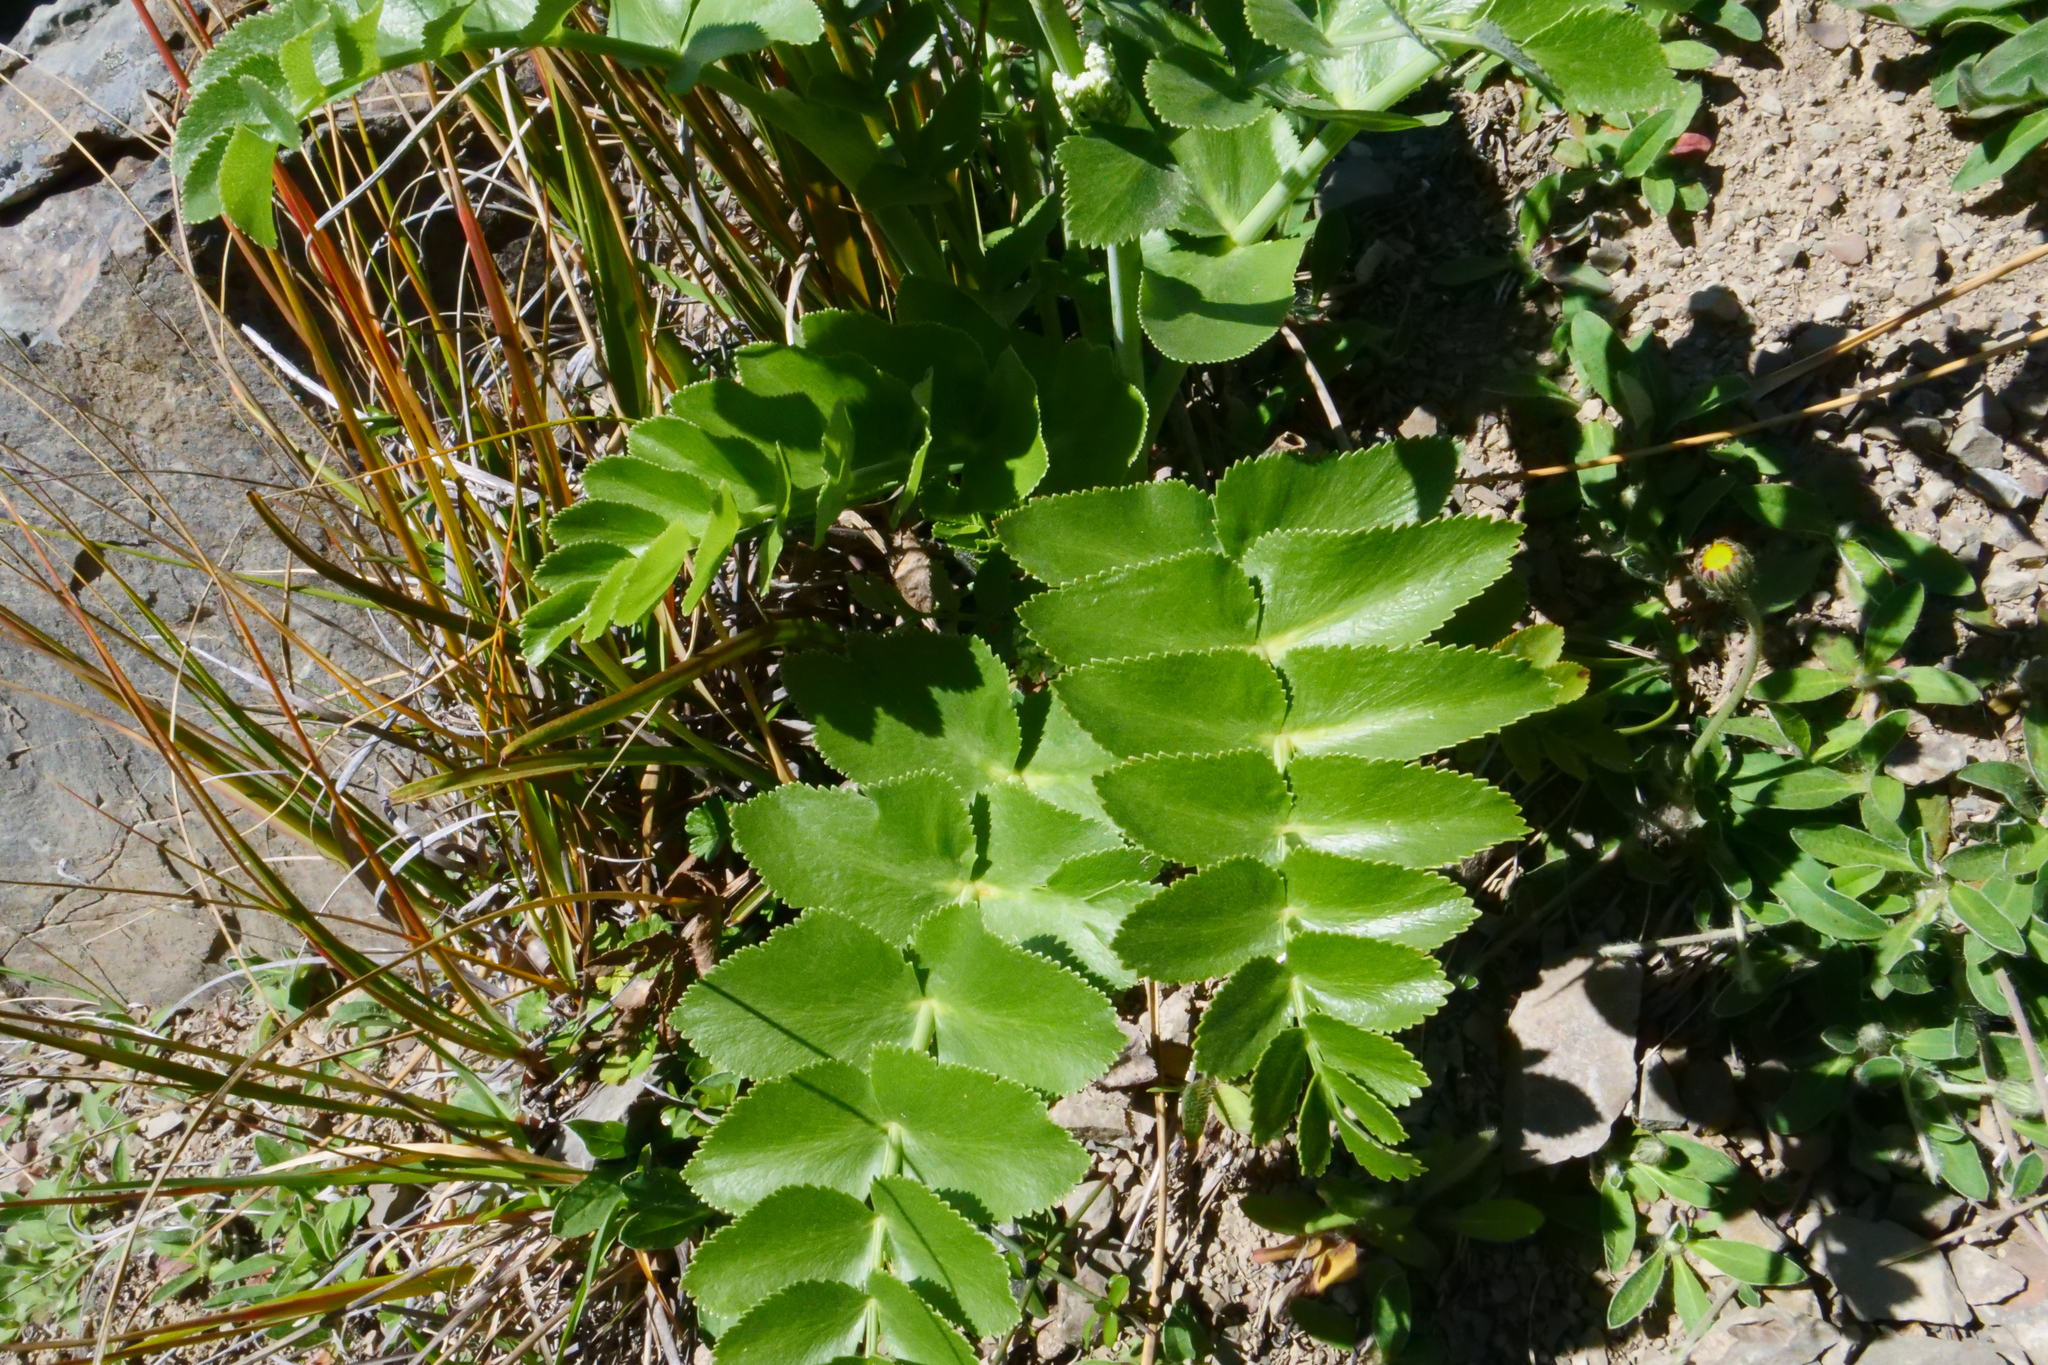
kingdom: Plantae
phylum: Tracheophyta
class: Magnoliopsida
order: Apiales
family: Apiaceae
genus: Gingidia
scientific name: Gingidia montana
